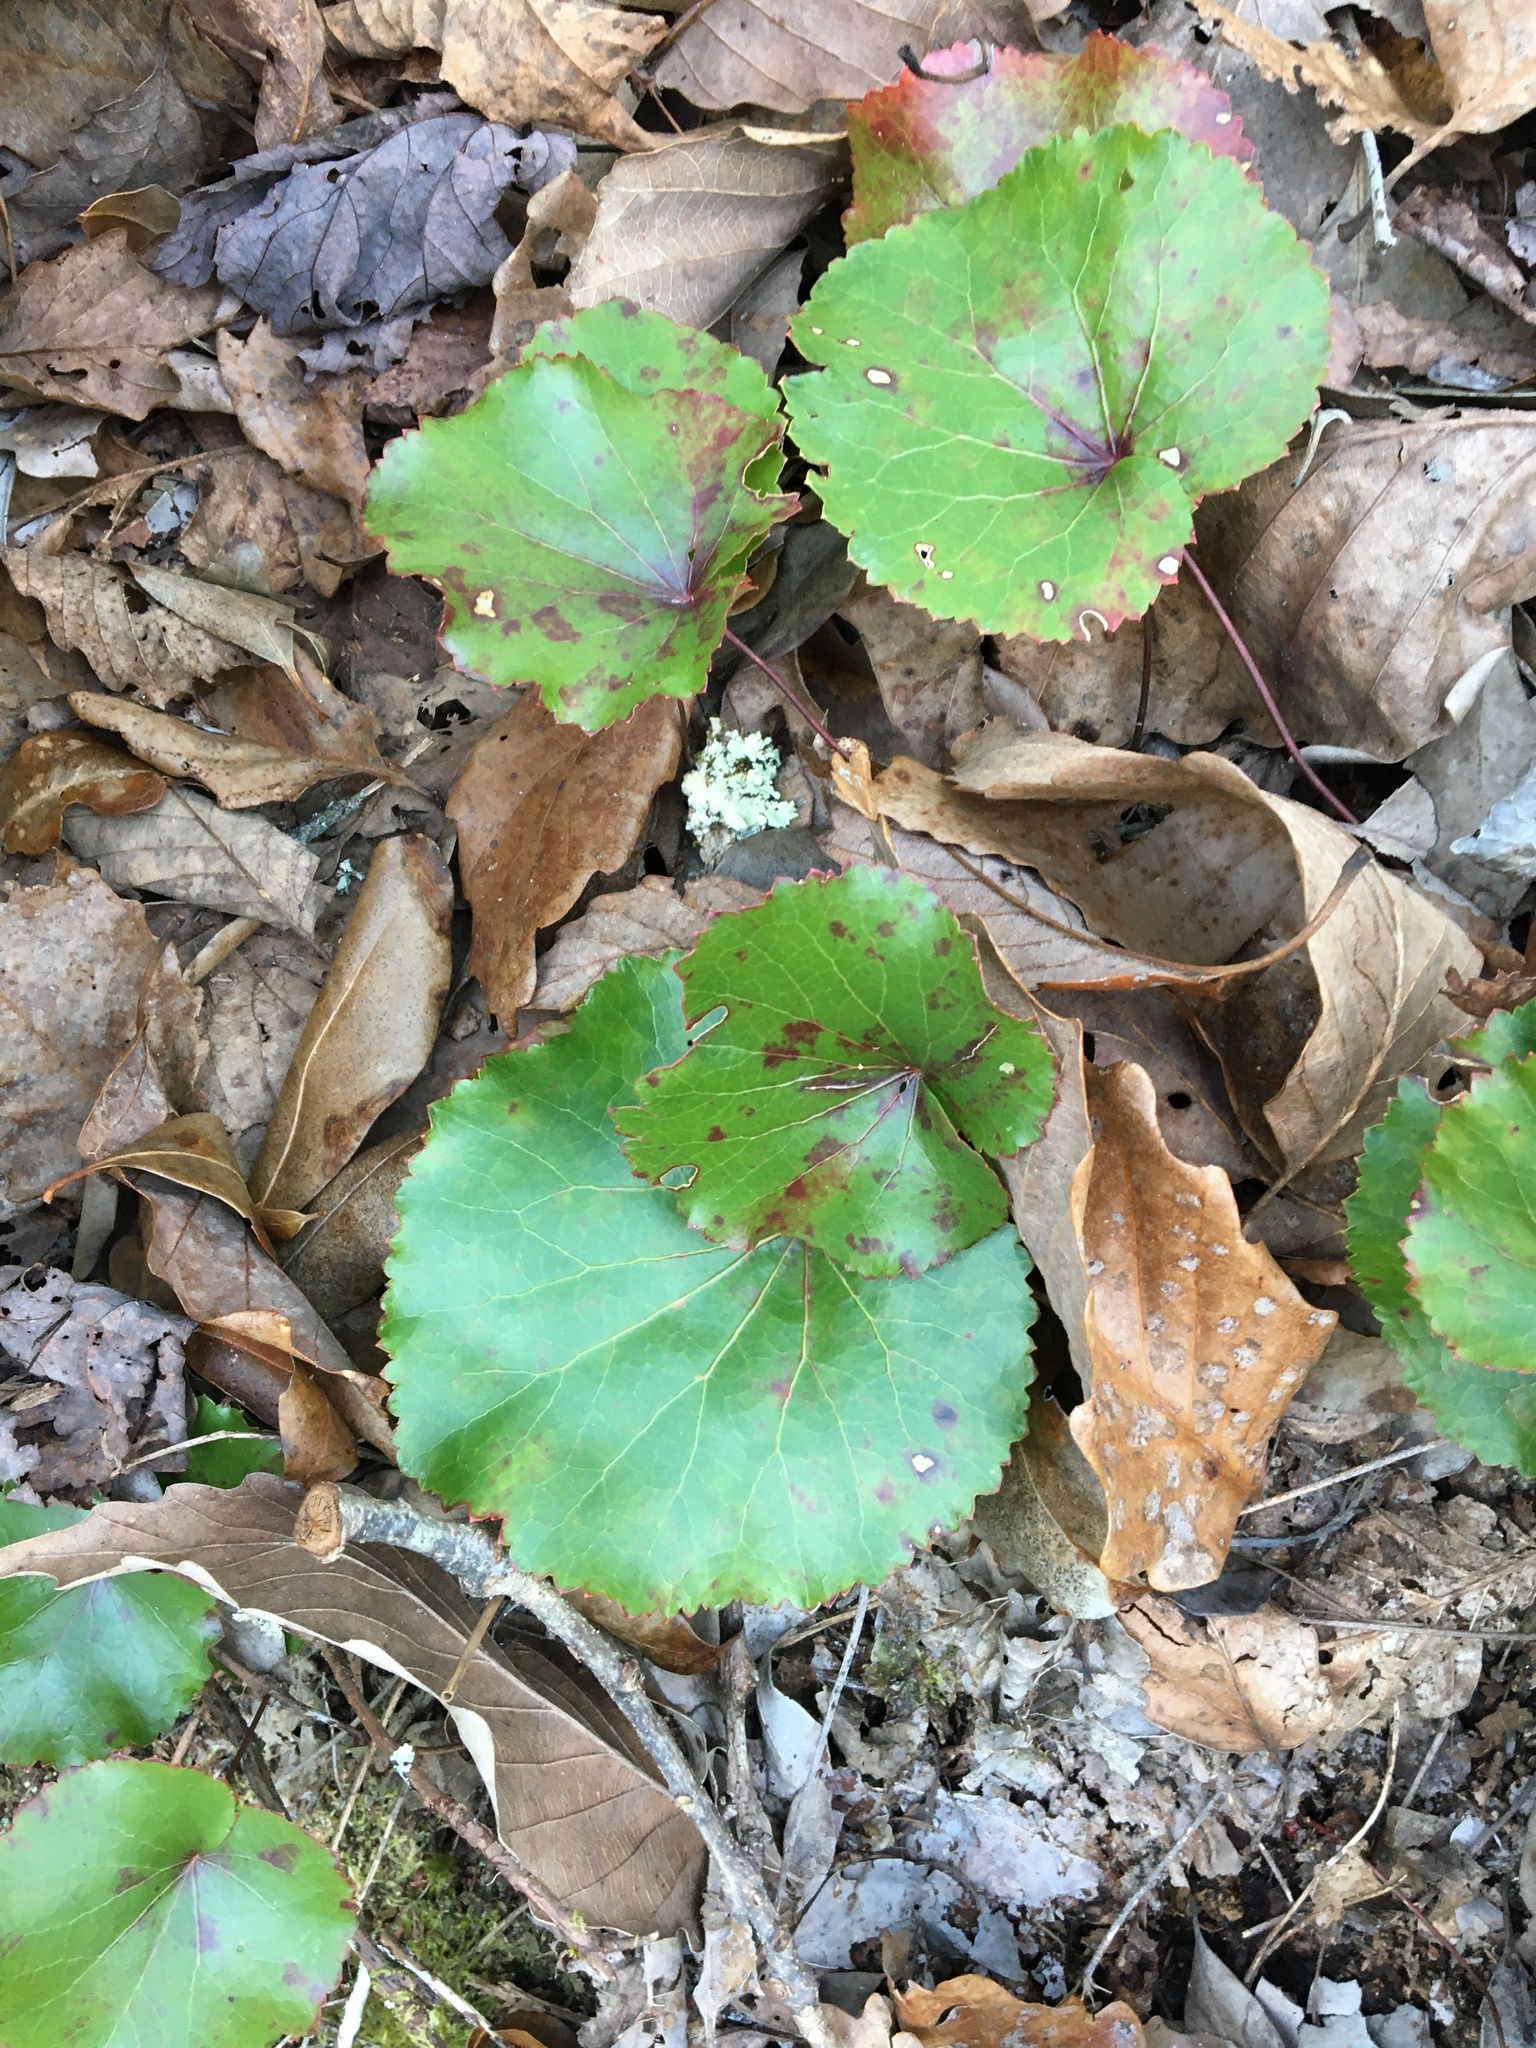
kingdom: Plantae
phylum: Tracheophyta
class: Magnoliopsida
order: Ericales
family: Diapensiaceae
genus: Galax
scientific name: Galax urceolata
